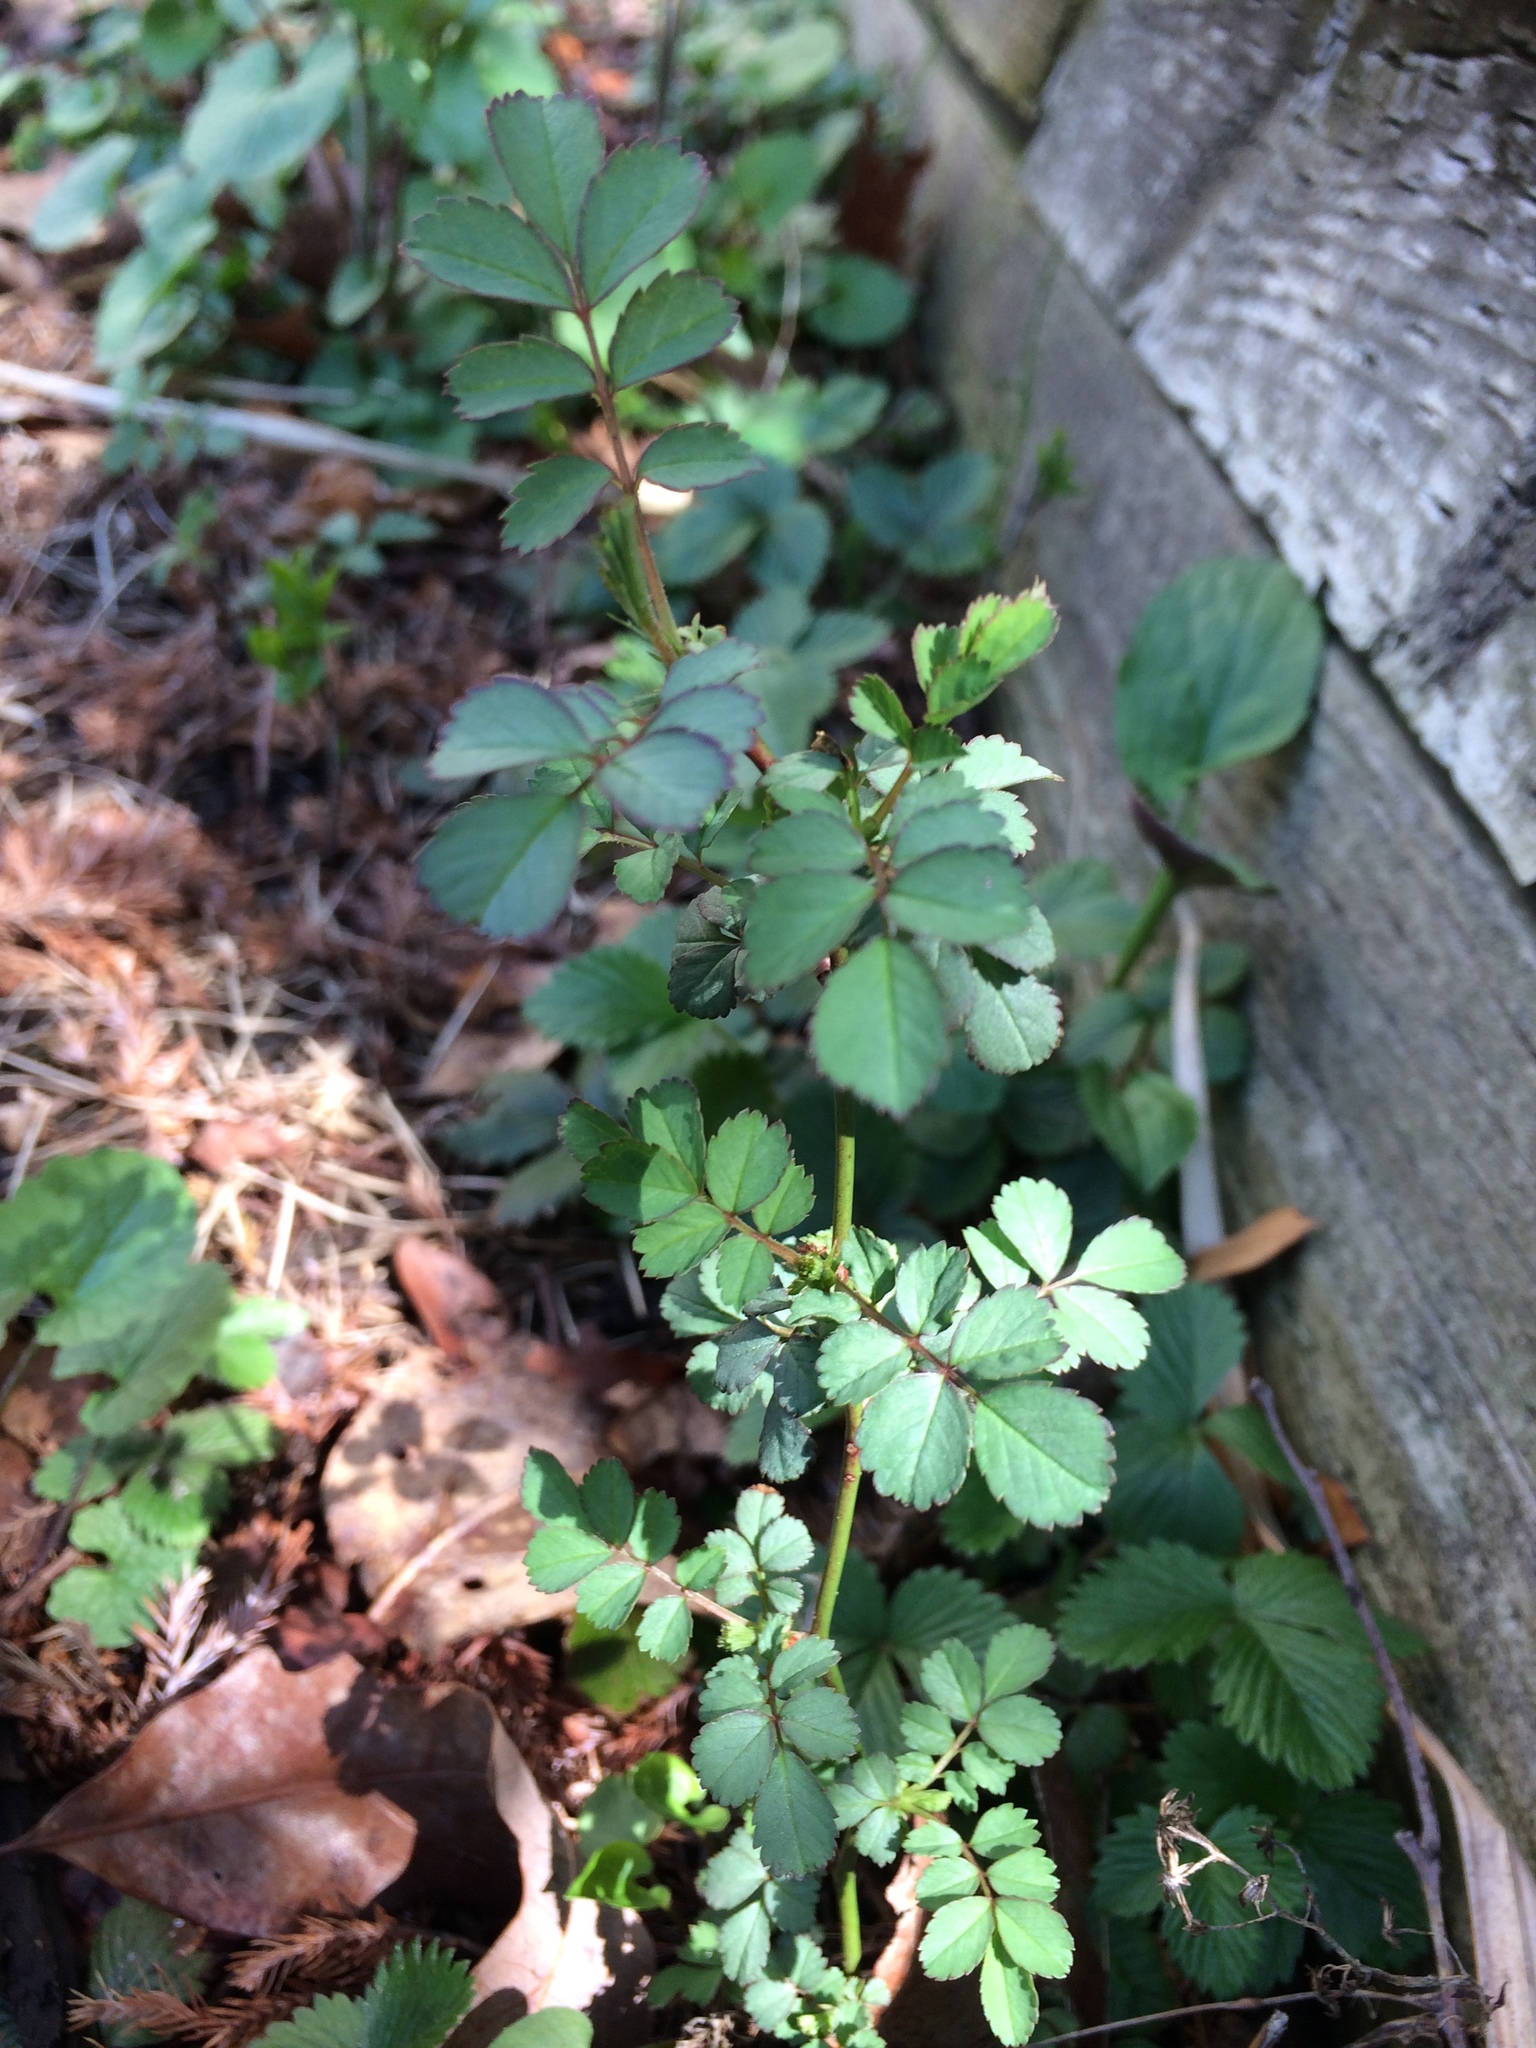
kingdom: Plantae
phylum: Tracheophyta
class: Magnoliopsida
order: Rosales
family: Rosaceae
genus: Rosa
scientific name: Rosa multiflora
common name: Multiflora rose
